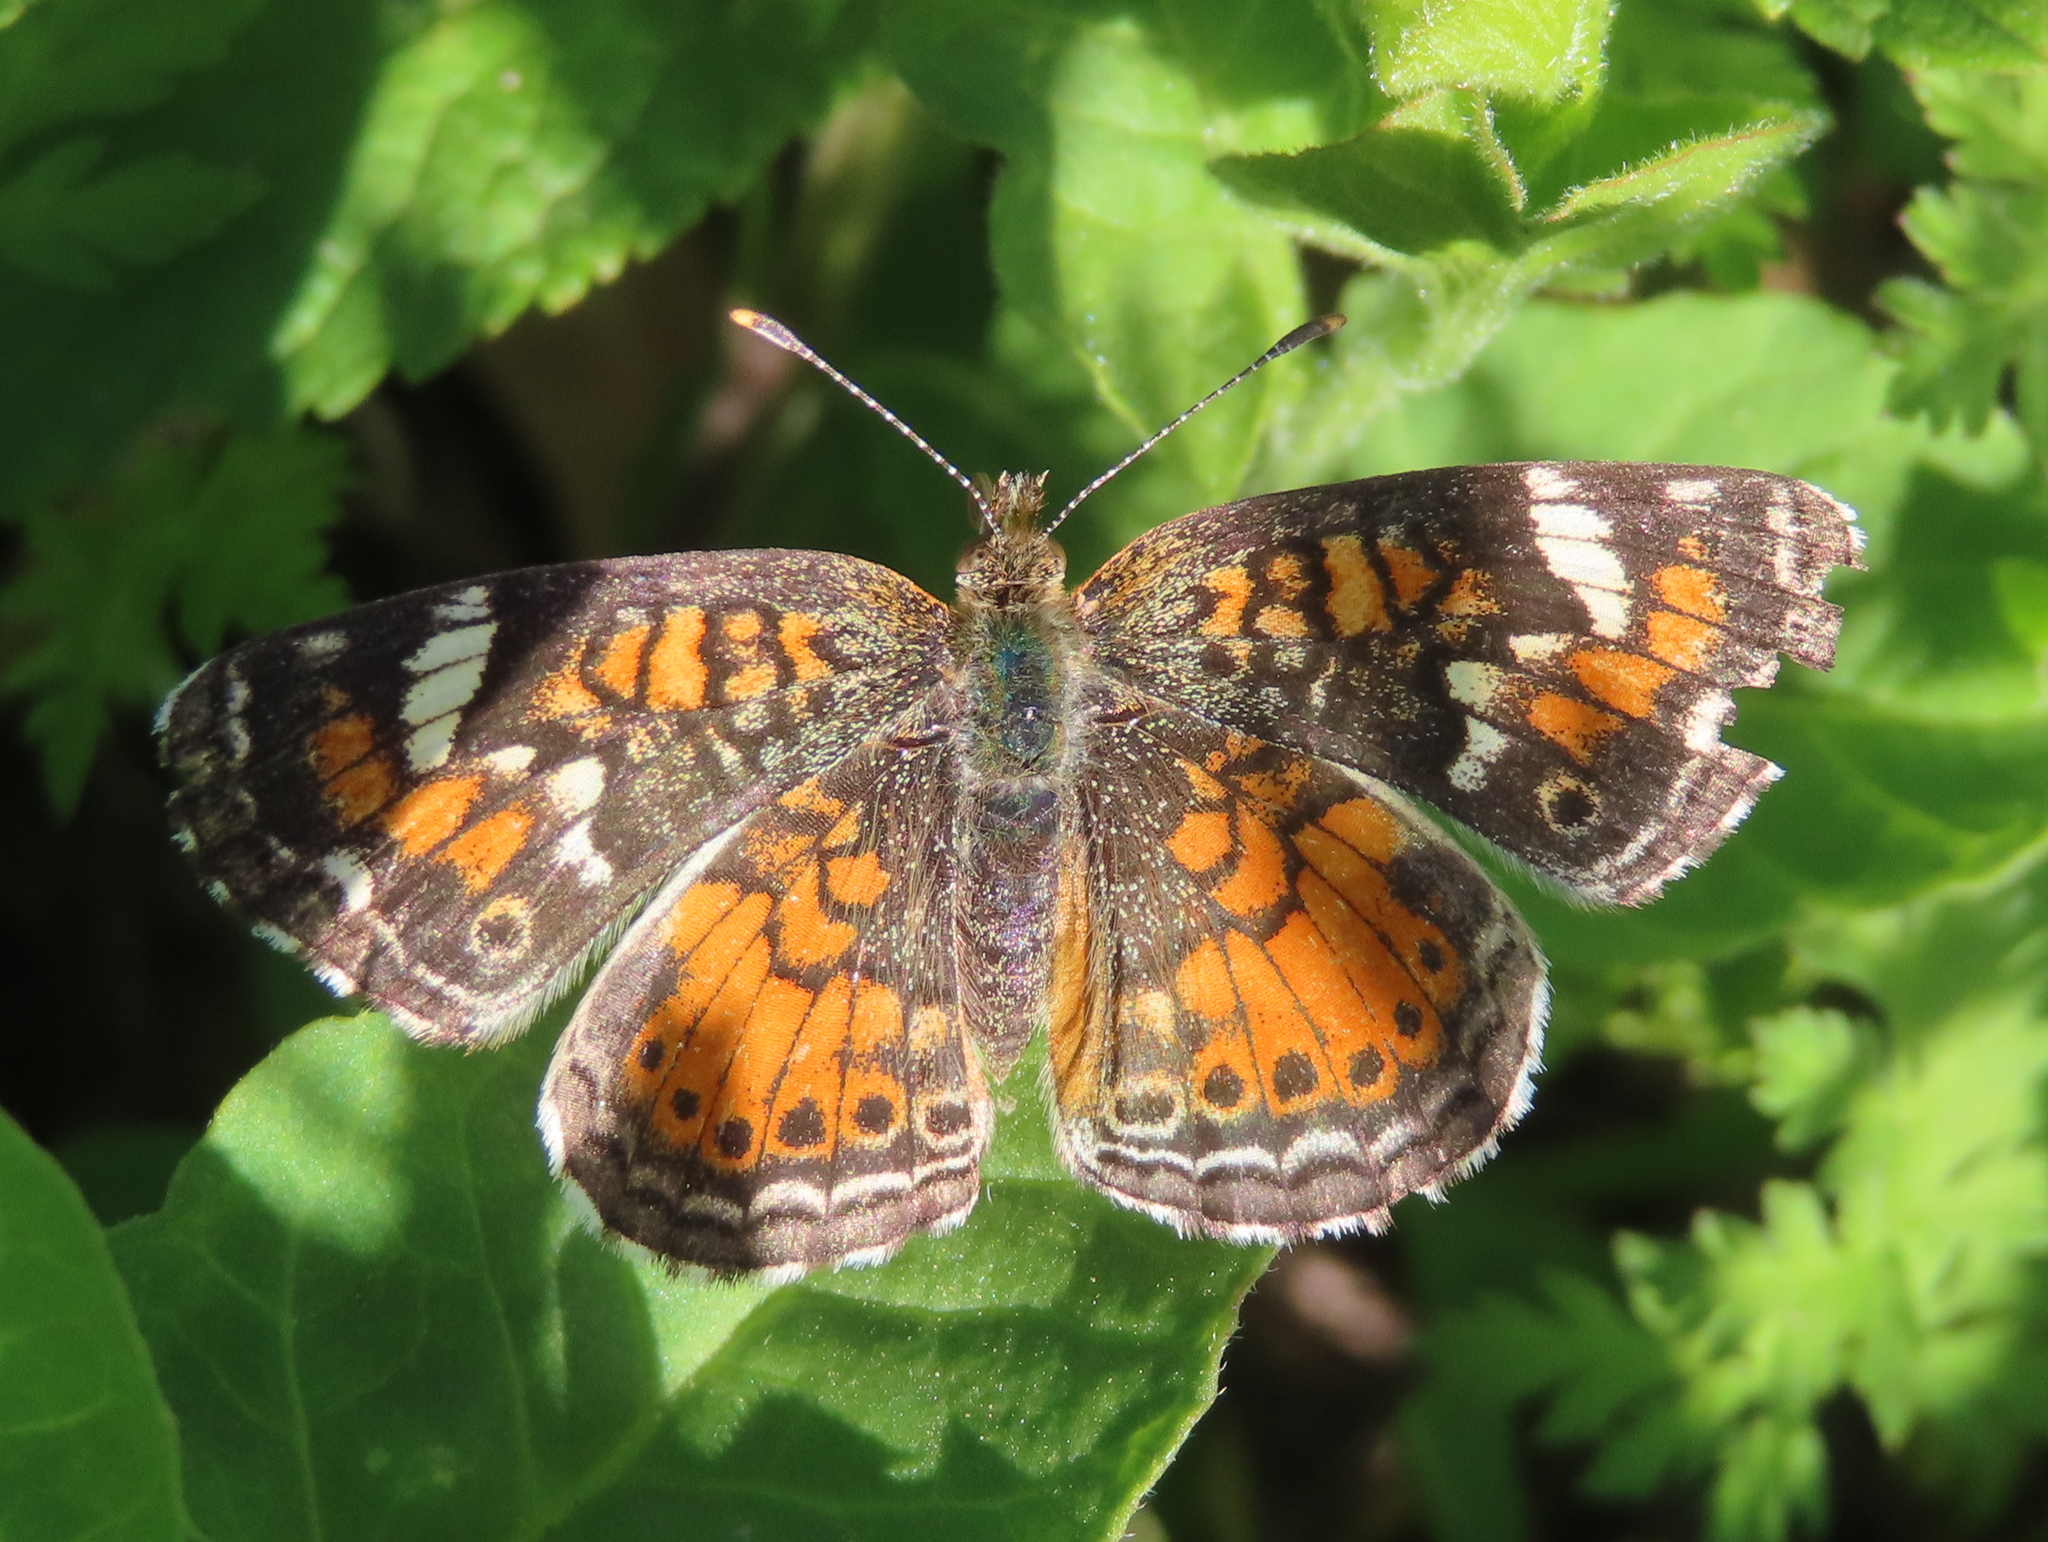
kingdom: Animalia
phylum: Arthropoda
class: Insecta
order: Lepidoptera
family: Nymphalidae
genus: Phyciodes
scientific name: Phyciodes phaon
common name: Phaon crescent
